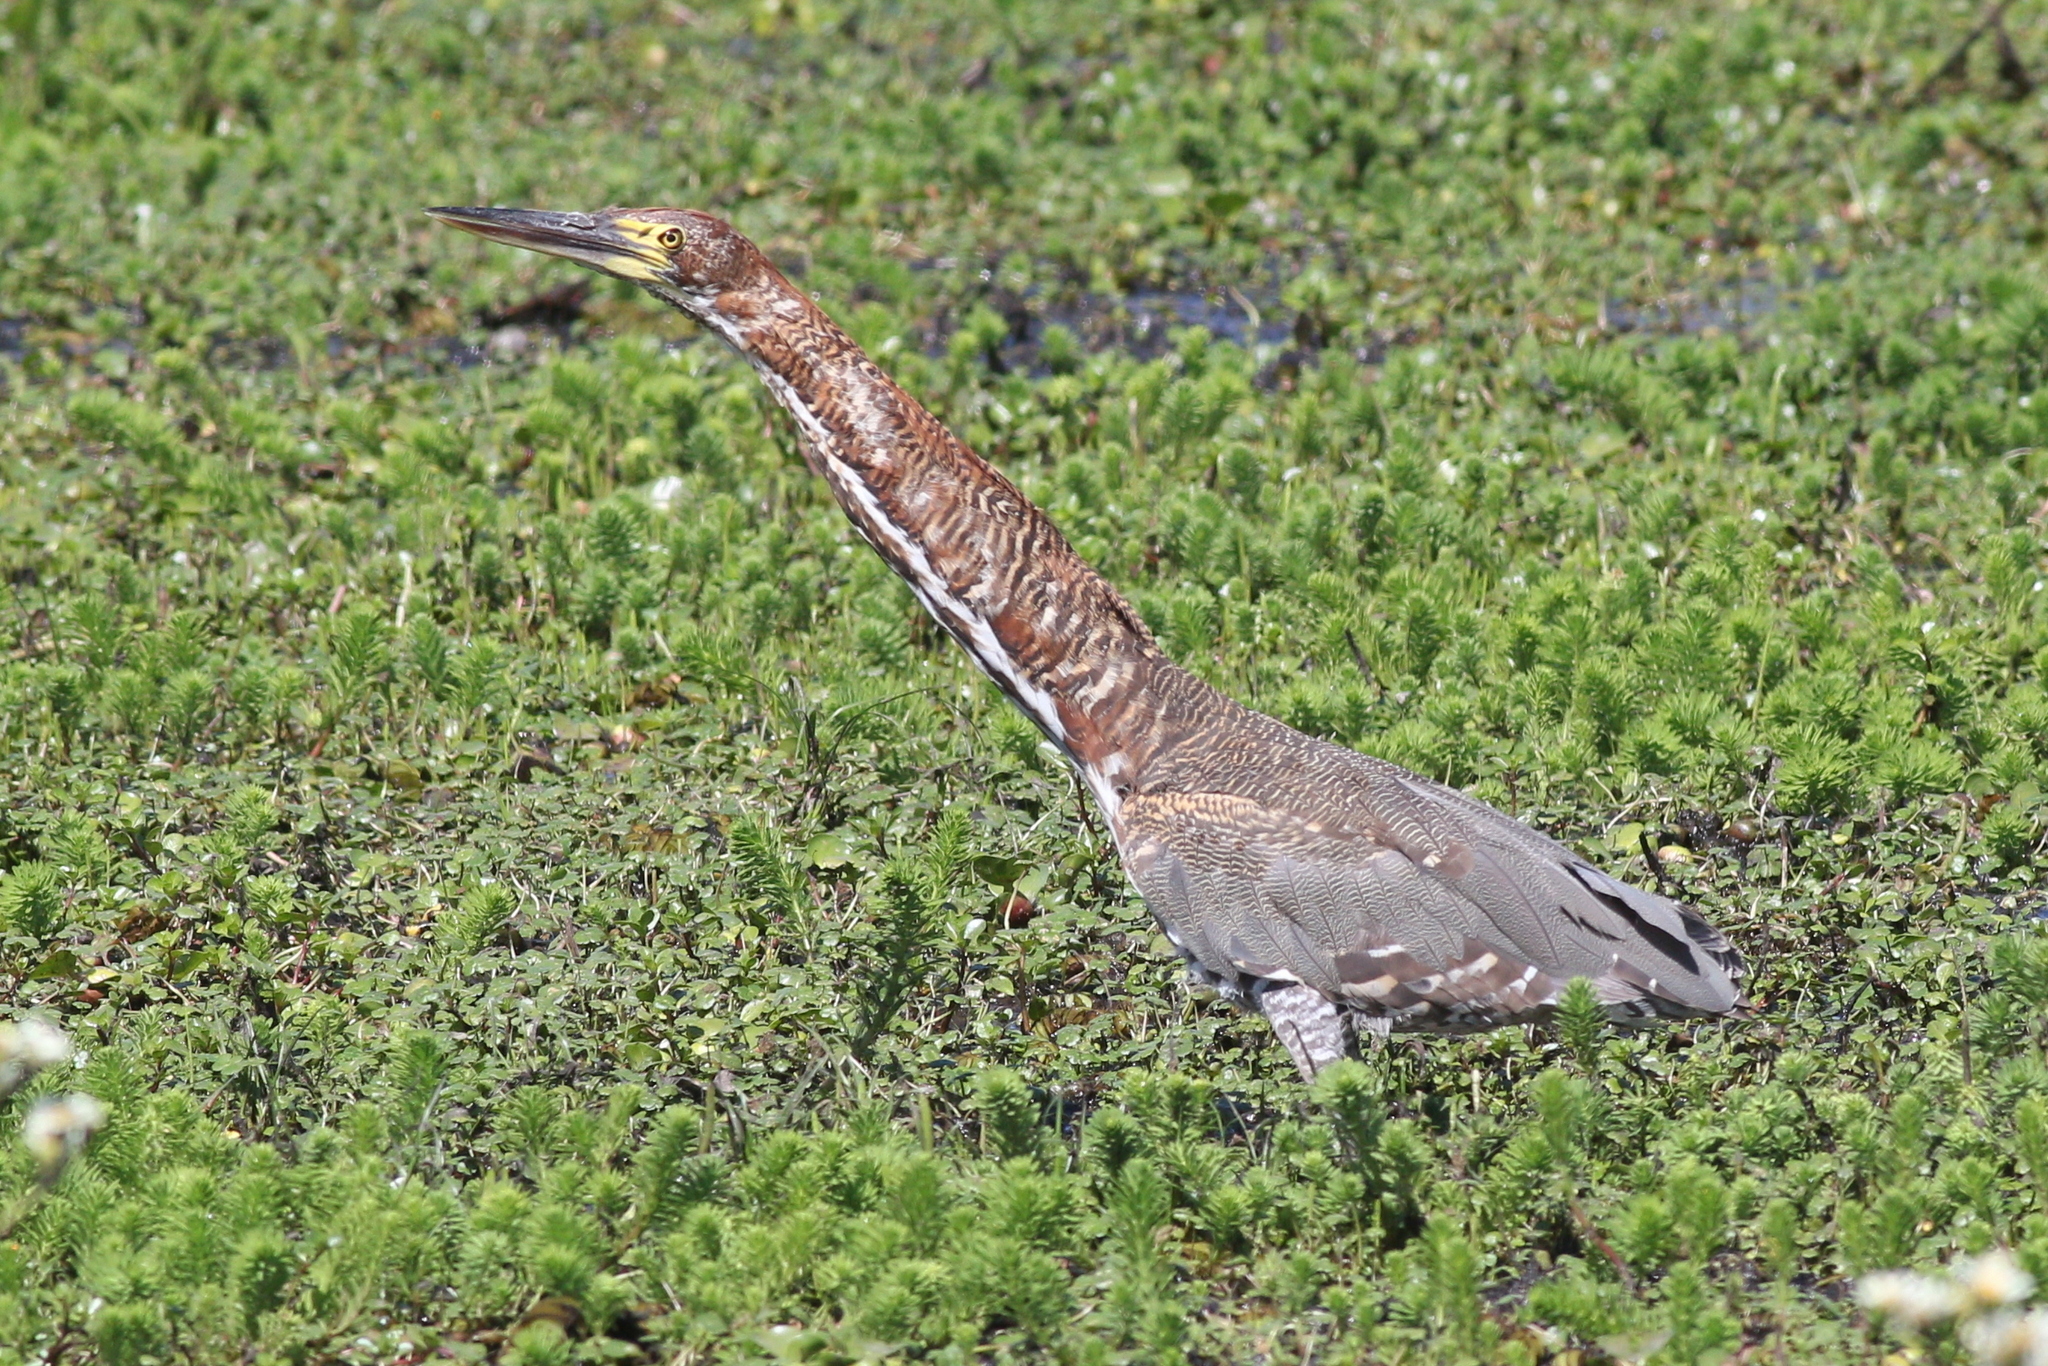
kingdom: Animalia
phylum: Chordata
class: Aves
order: Pelecaniformes
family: Ardeidae
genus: Tigrisoma
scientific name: Tigrisoma lineatum
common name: Rufescent tiger-heron
